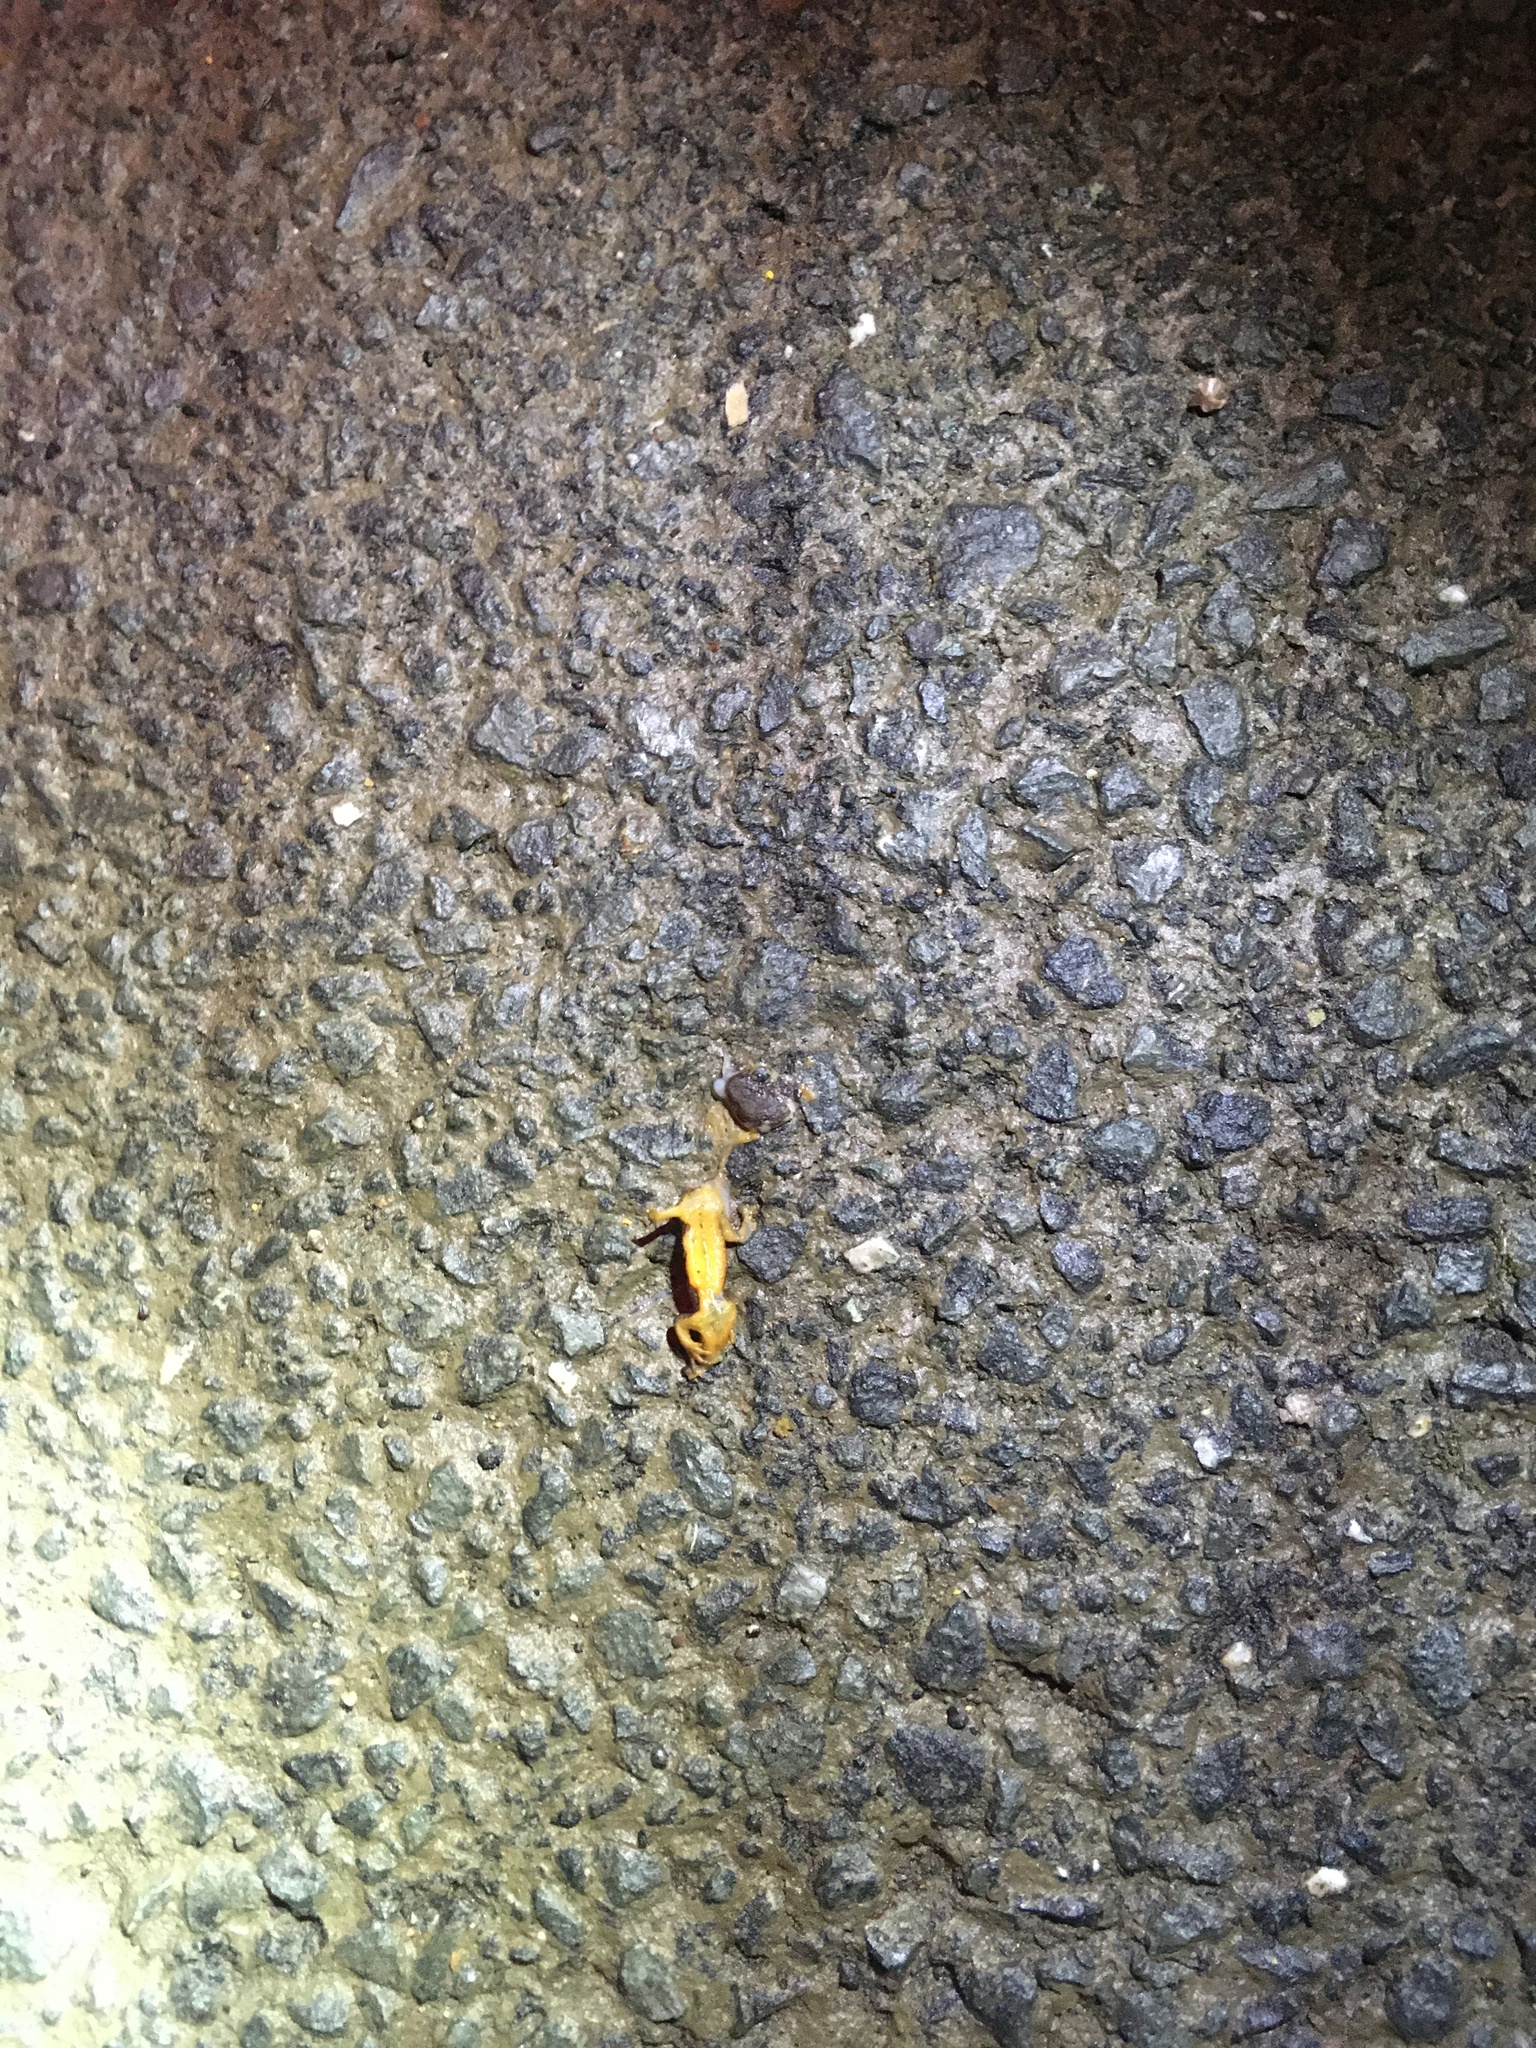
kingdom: Animalia
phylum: Chordata
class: Amphibia
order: Caudata
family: Salamandridae
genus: Taricha
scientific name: Taricha
